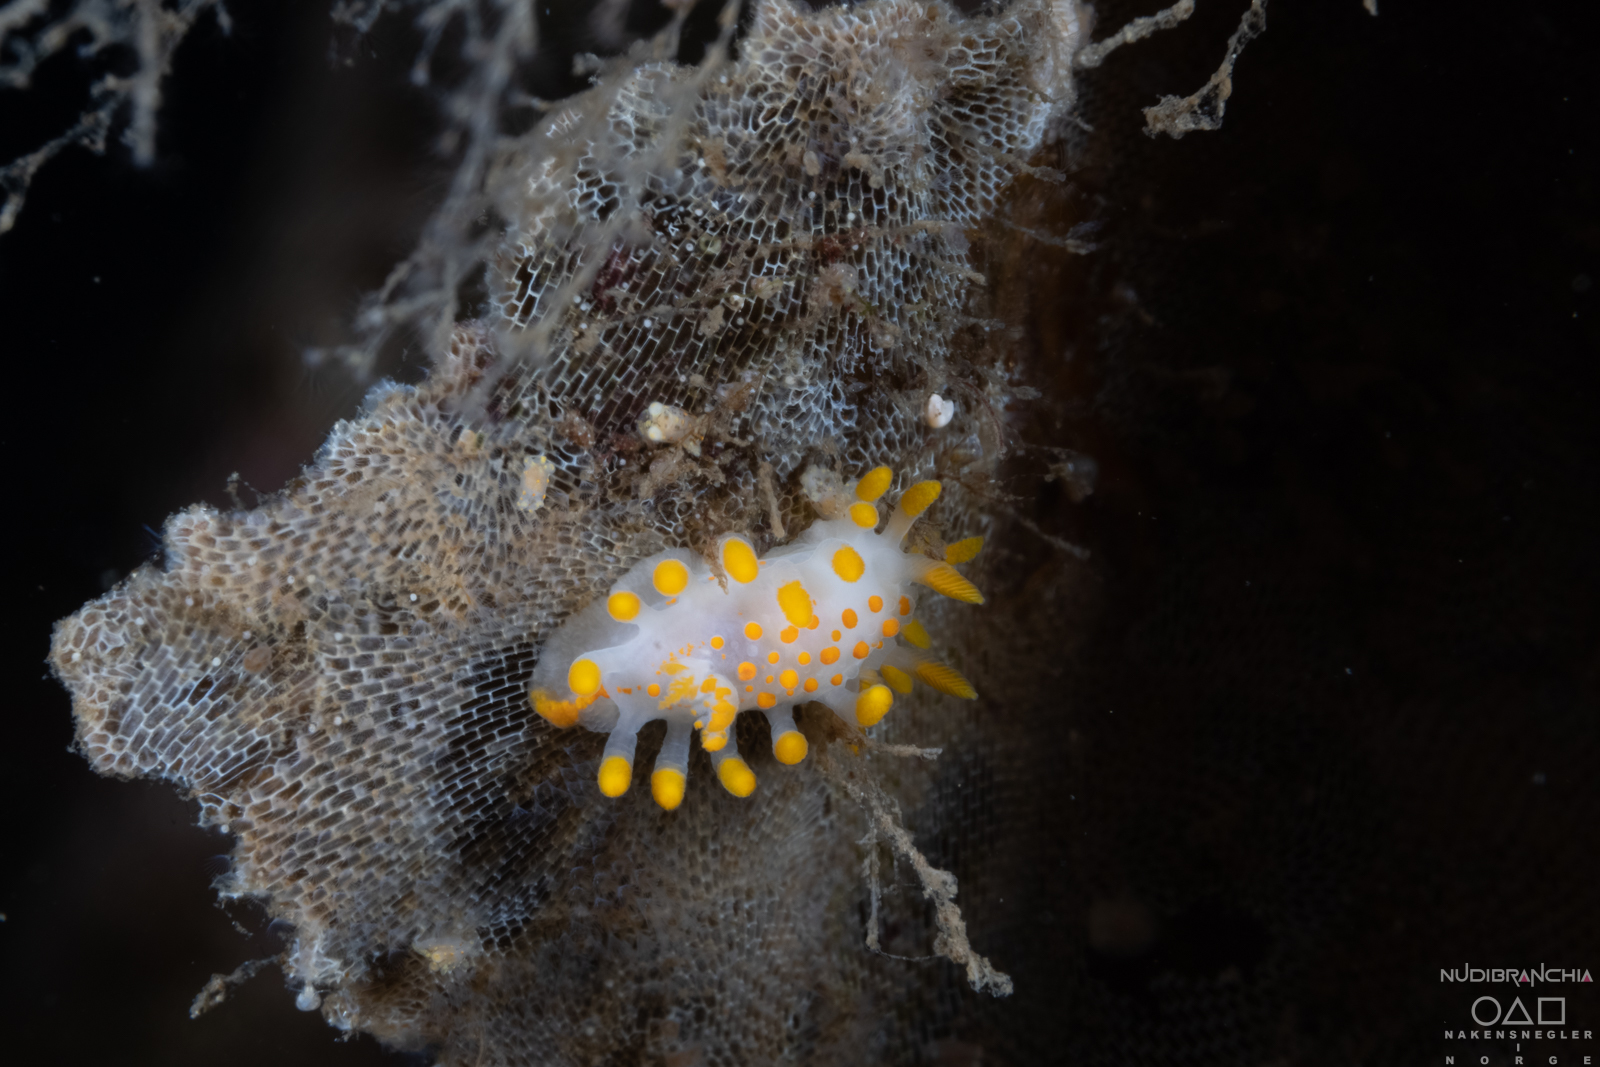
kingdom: Animalia
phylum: Mollusca
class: Gastropoda
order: Nudibranchia
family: Polyceridae
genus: Limacia
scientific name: Limacia clavigera
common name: Orange-clubbed sea slug
